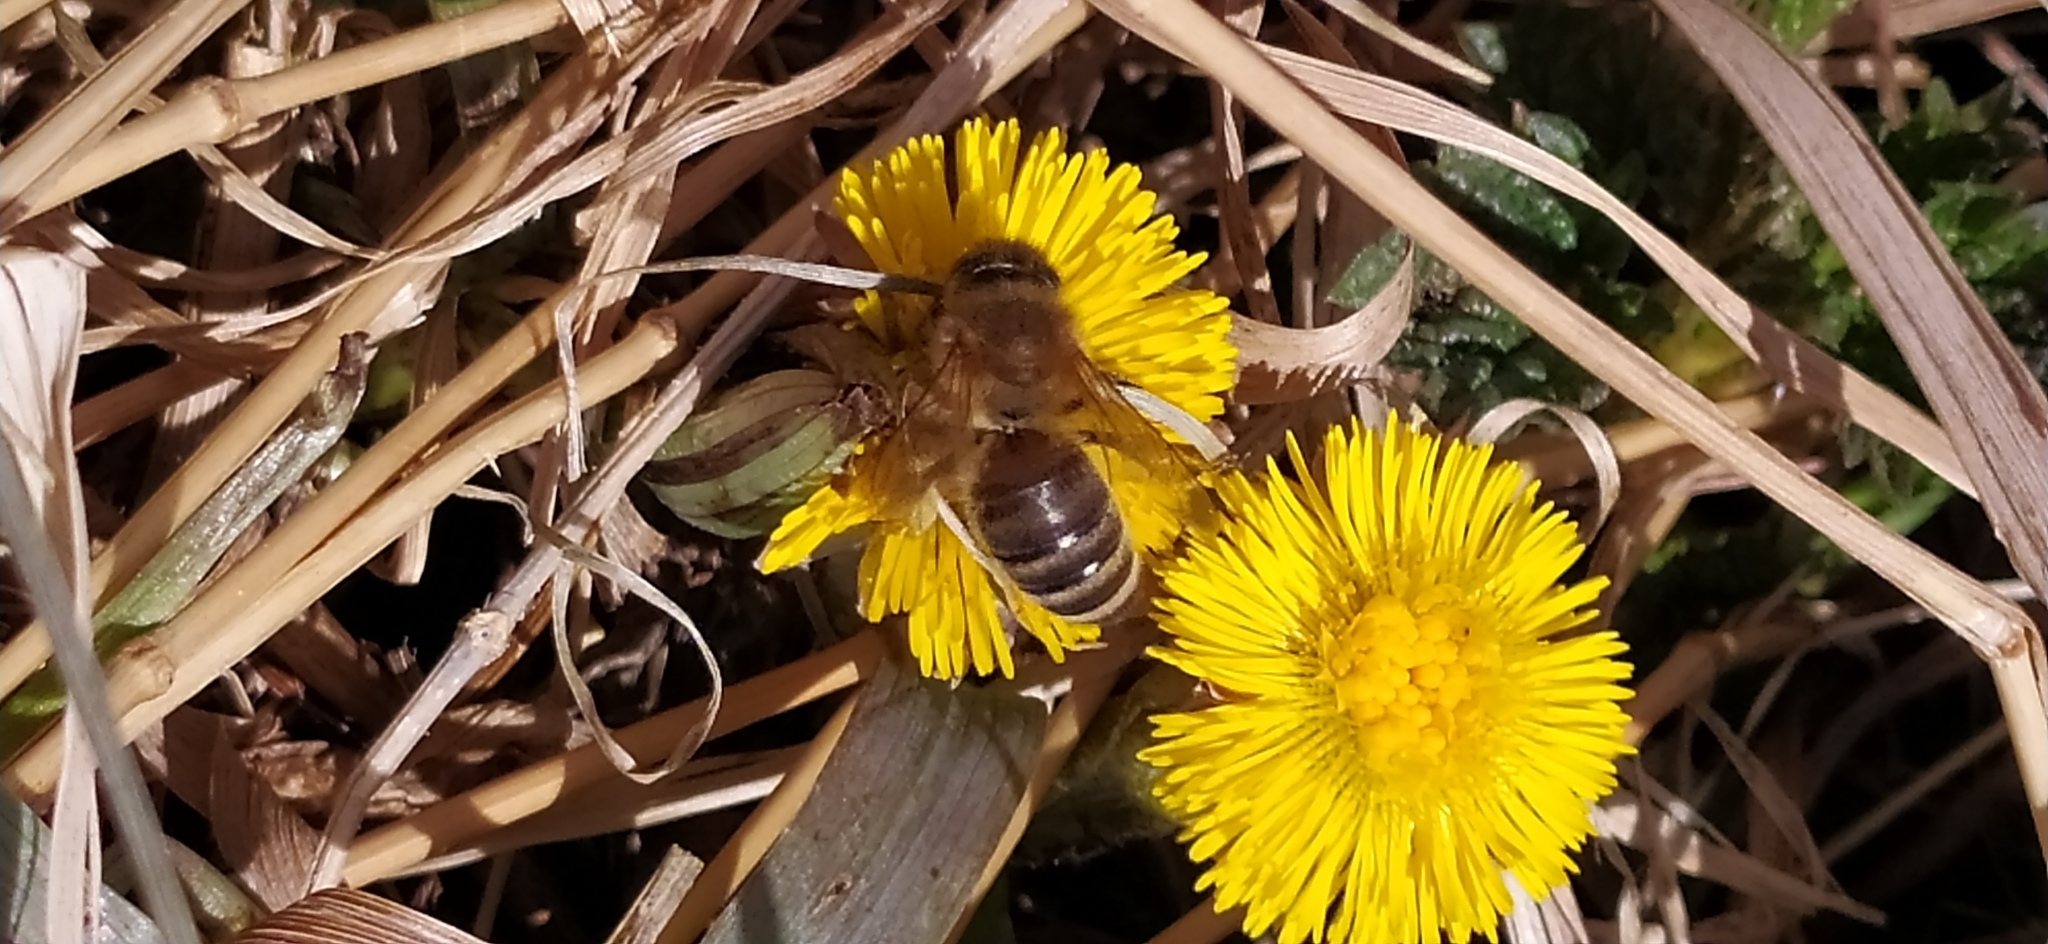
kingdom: Animalia
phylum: Arthropoda
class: Insecta
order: Hymenoptera
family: Apidae
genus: Apis
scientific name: Apis mellifera
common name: Honey bee
